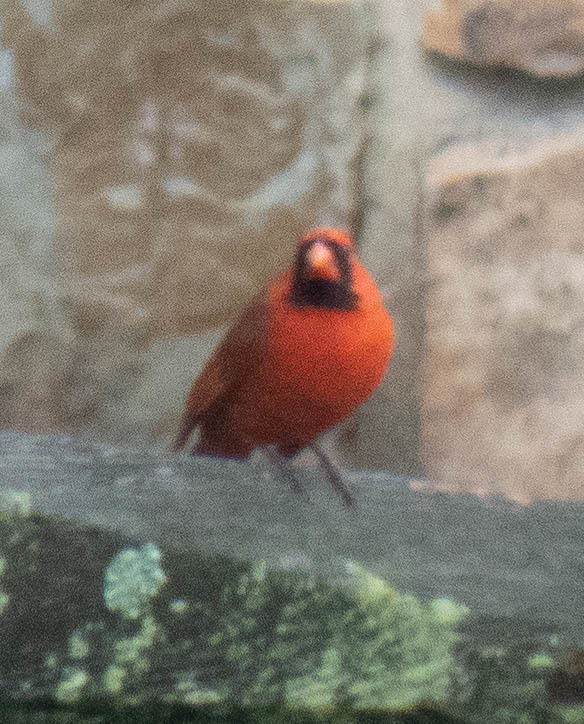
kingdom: Animalia
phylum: Chordata
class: Aves
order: Passeriformes
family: Cardinalidae
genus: Cardinalis
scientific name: Cardinalis cardinalis
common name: Northern cardinal
